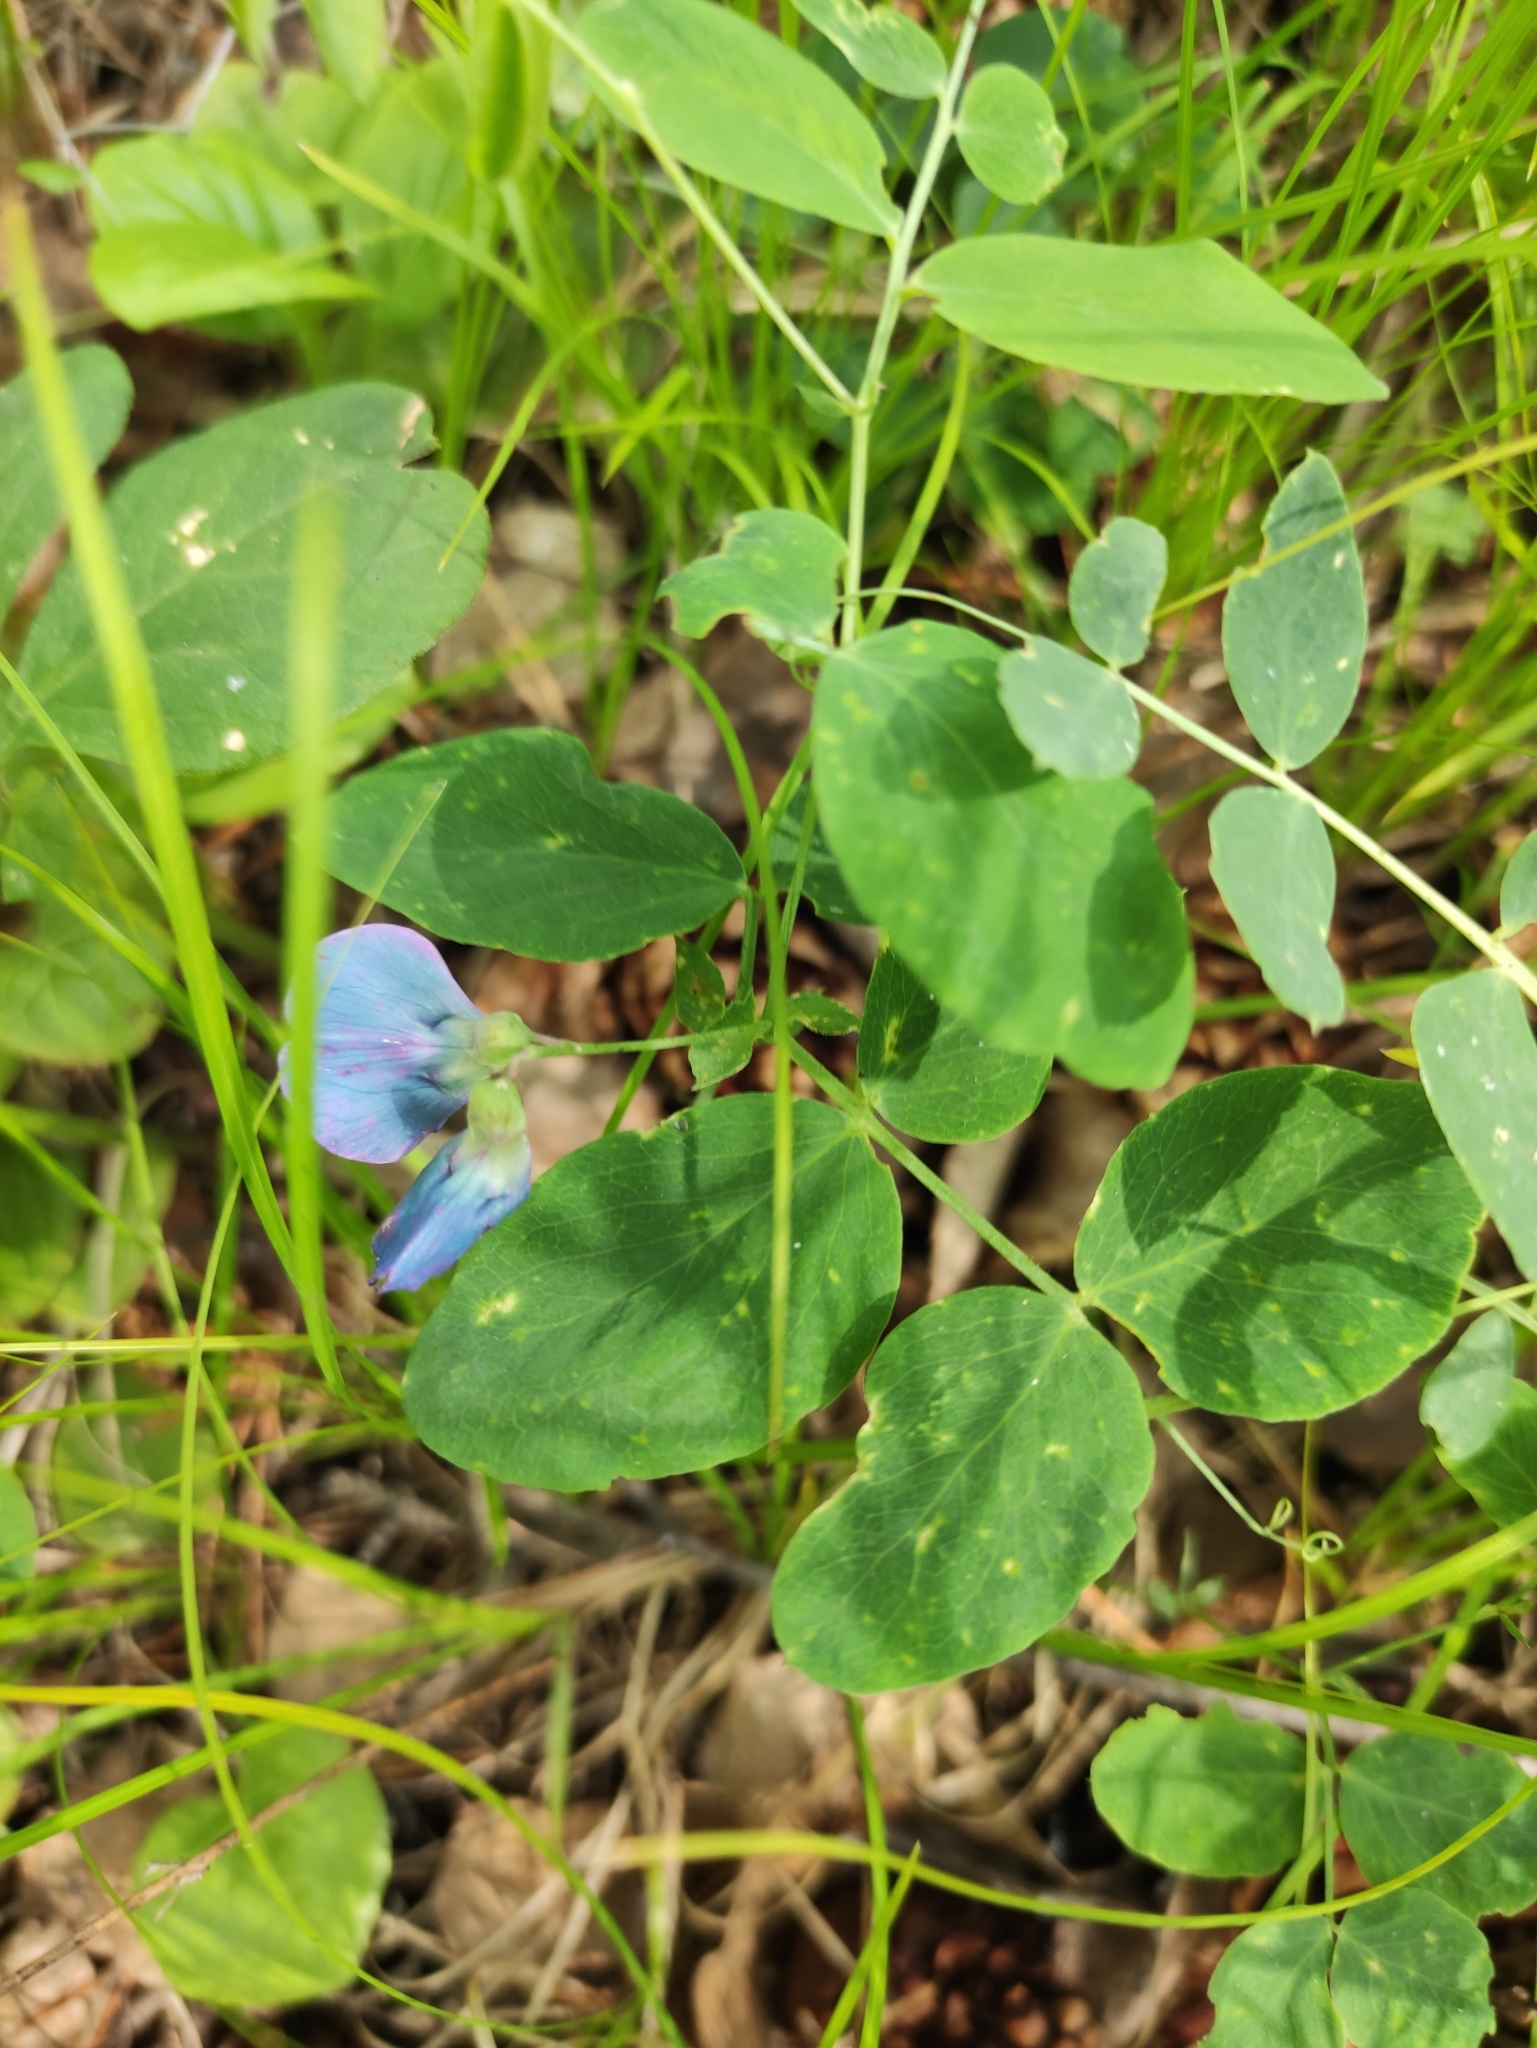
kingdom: Plantae
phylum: Tracheophyta
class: Magnoliopsida
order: Fabales
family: Fabaceae
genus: Lathyrus
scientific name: Lathyrus humilis
